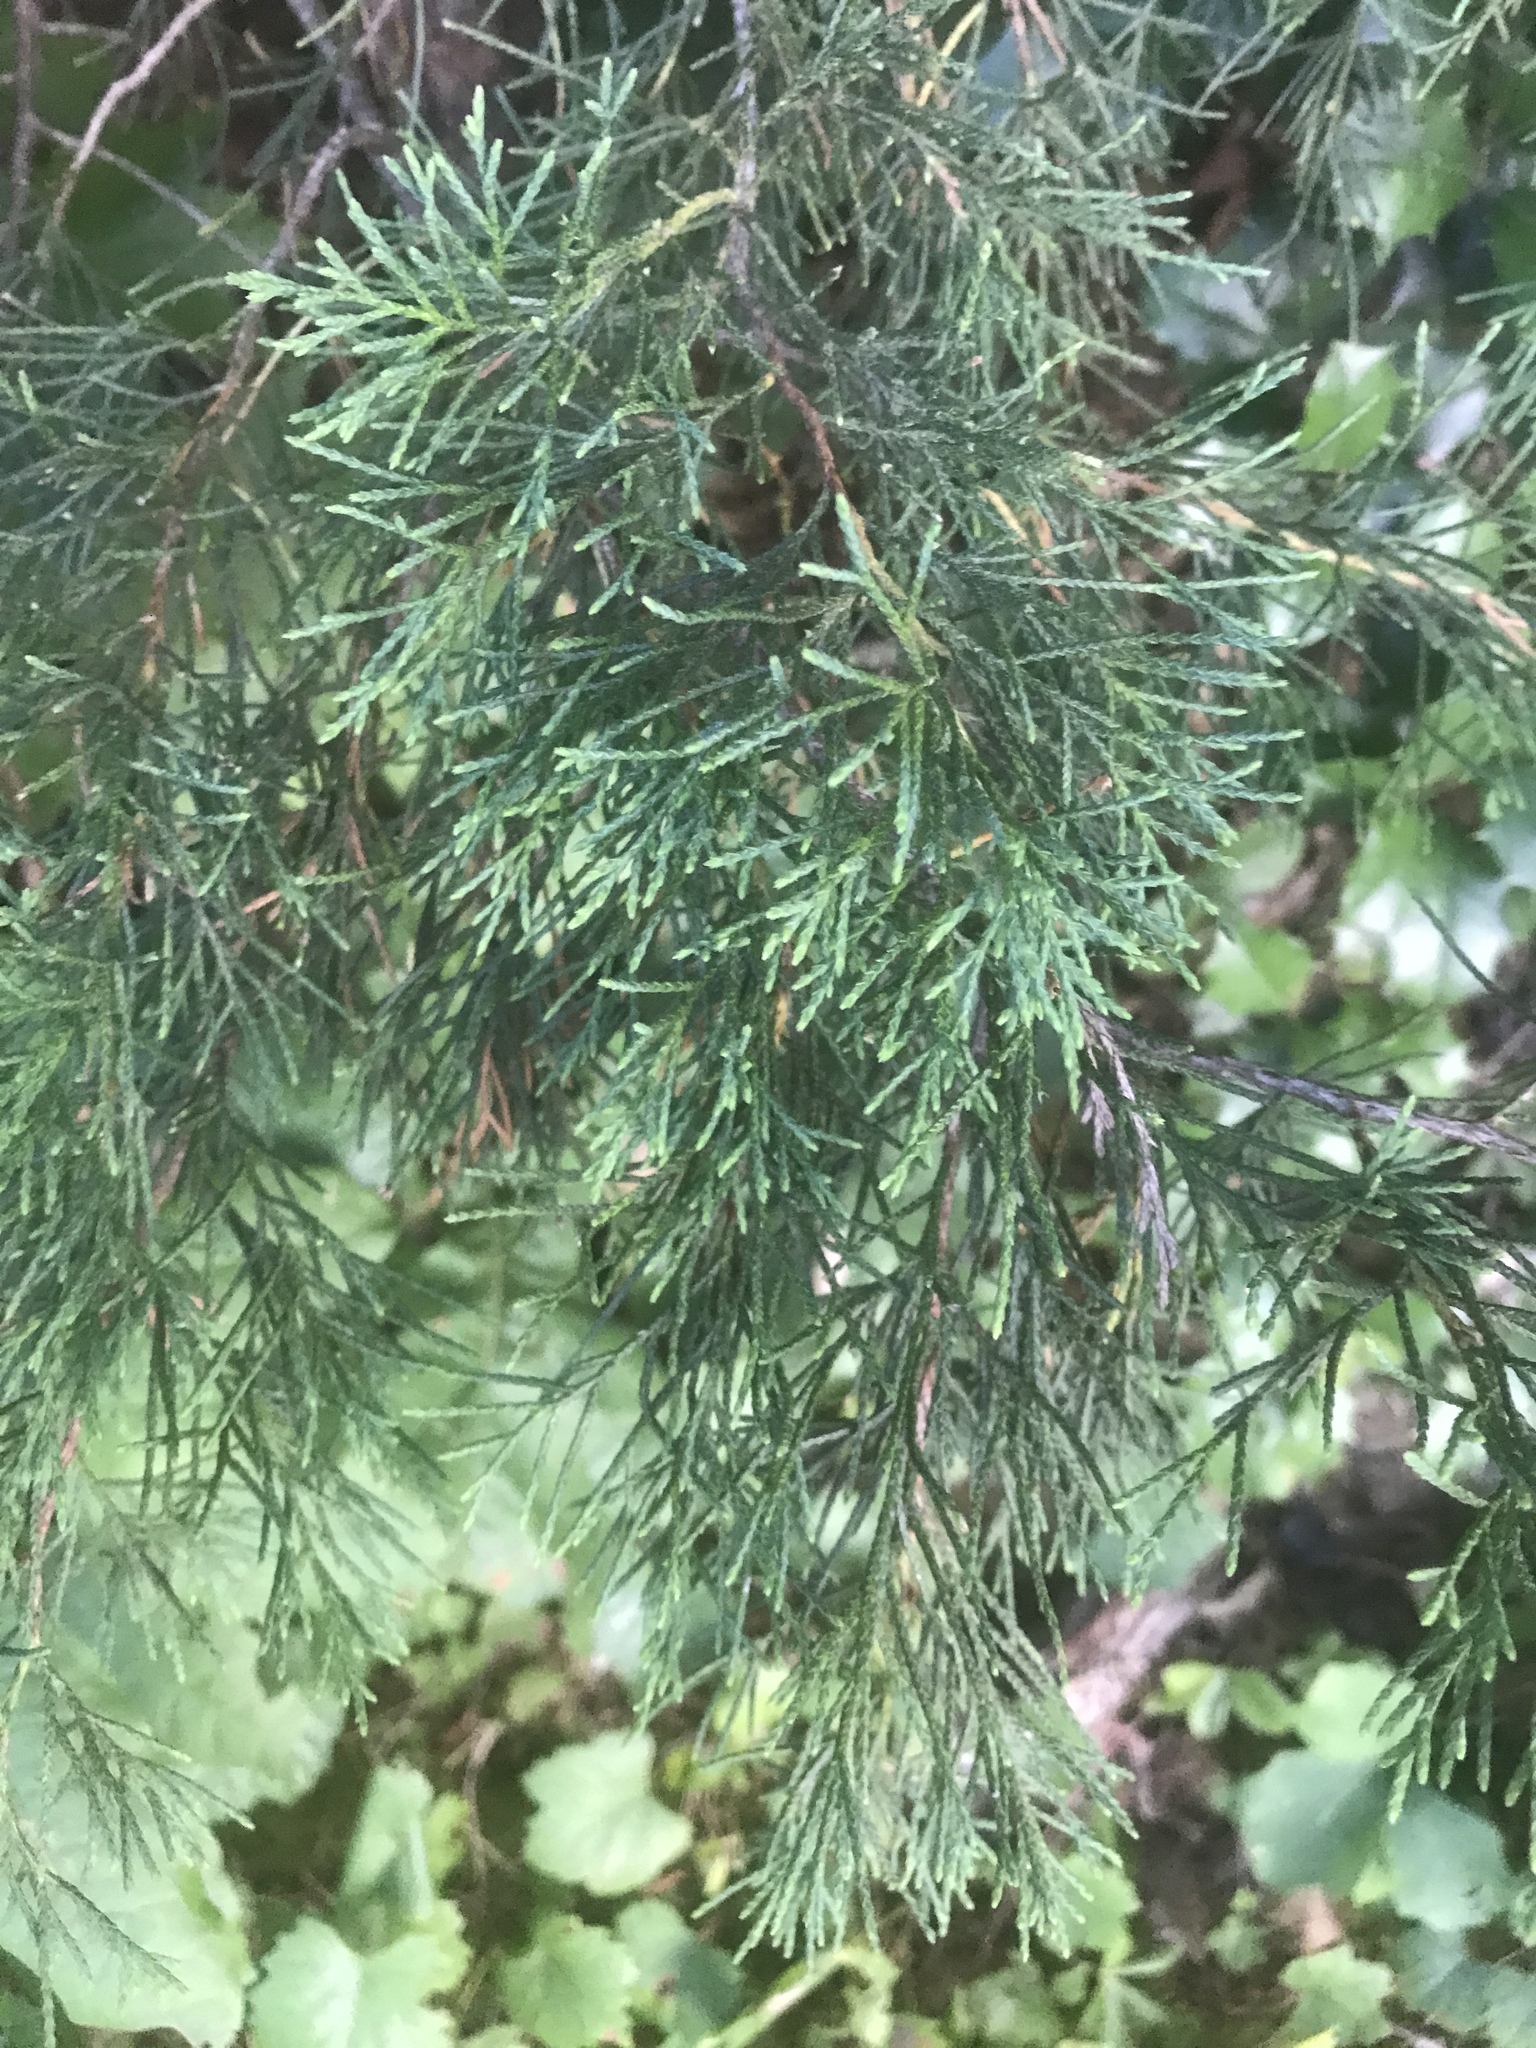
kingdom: Plantae
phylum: Tracheophyta
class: Pinopsida
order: Pinales
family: Cupressaceae
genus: Juniperus
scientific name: Juniperus virginiana
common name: Red juniper
